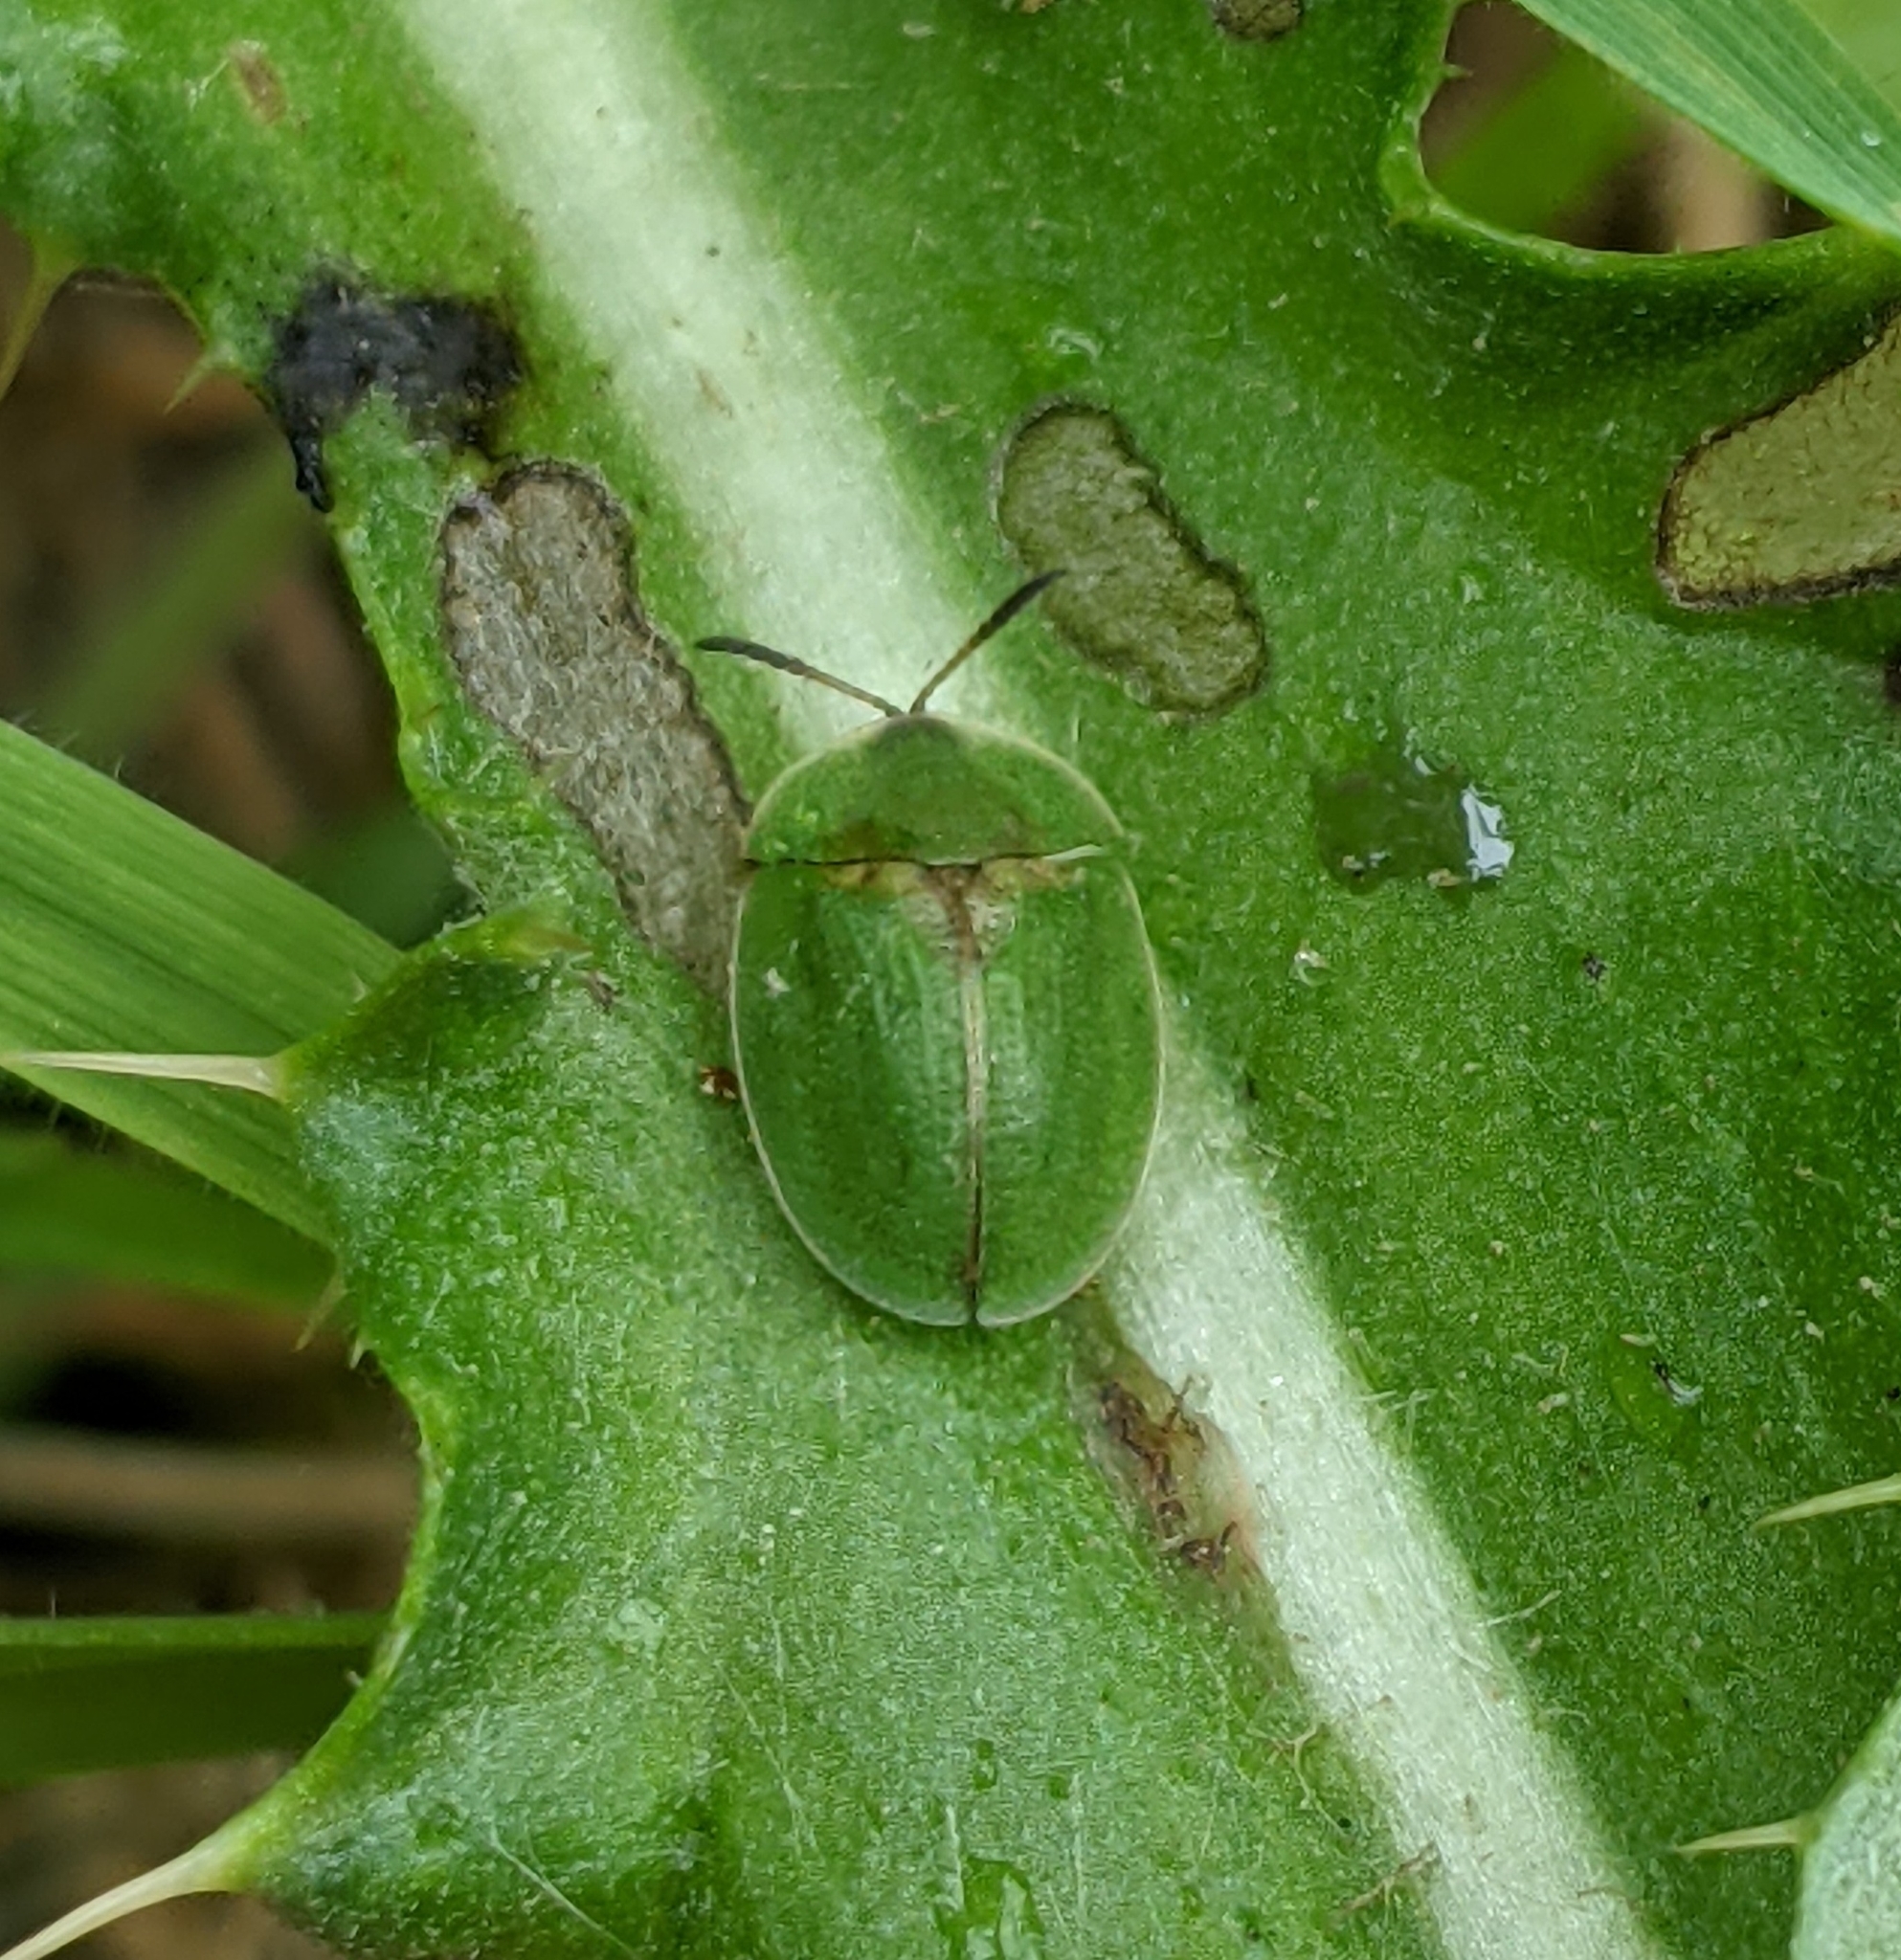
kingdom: Animalia
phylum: Arthropoda
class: Insecta
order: Coleoptera
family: Chrysomelidae
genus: Cassida
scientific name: Cassida rubiginosa
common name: Thistle tortoise beetle
